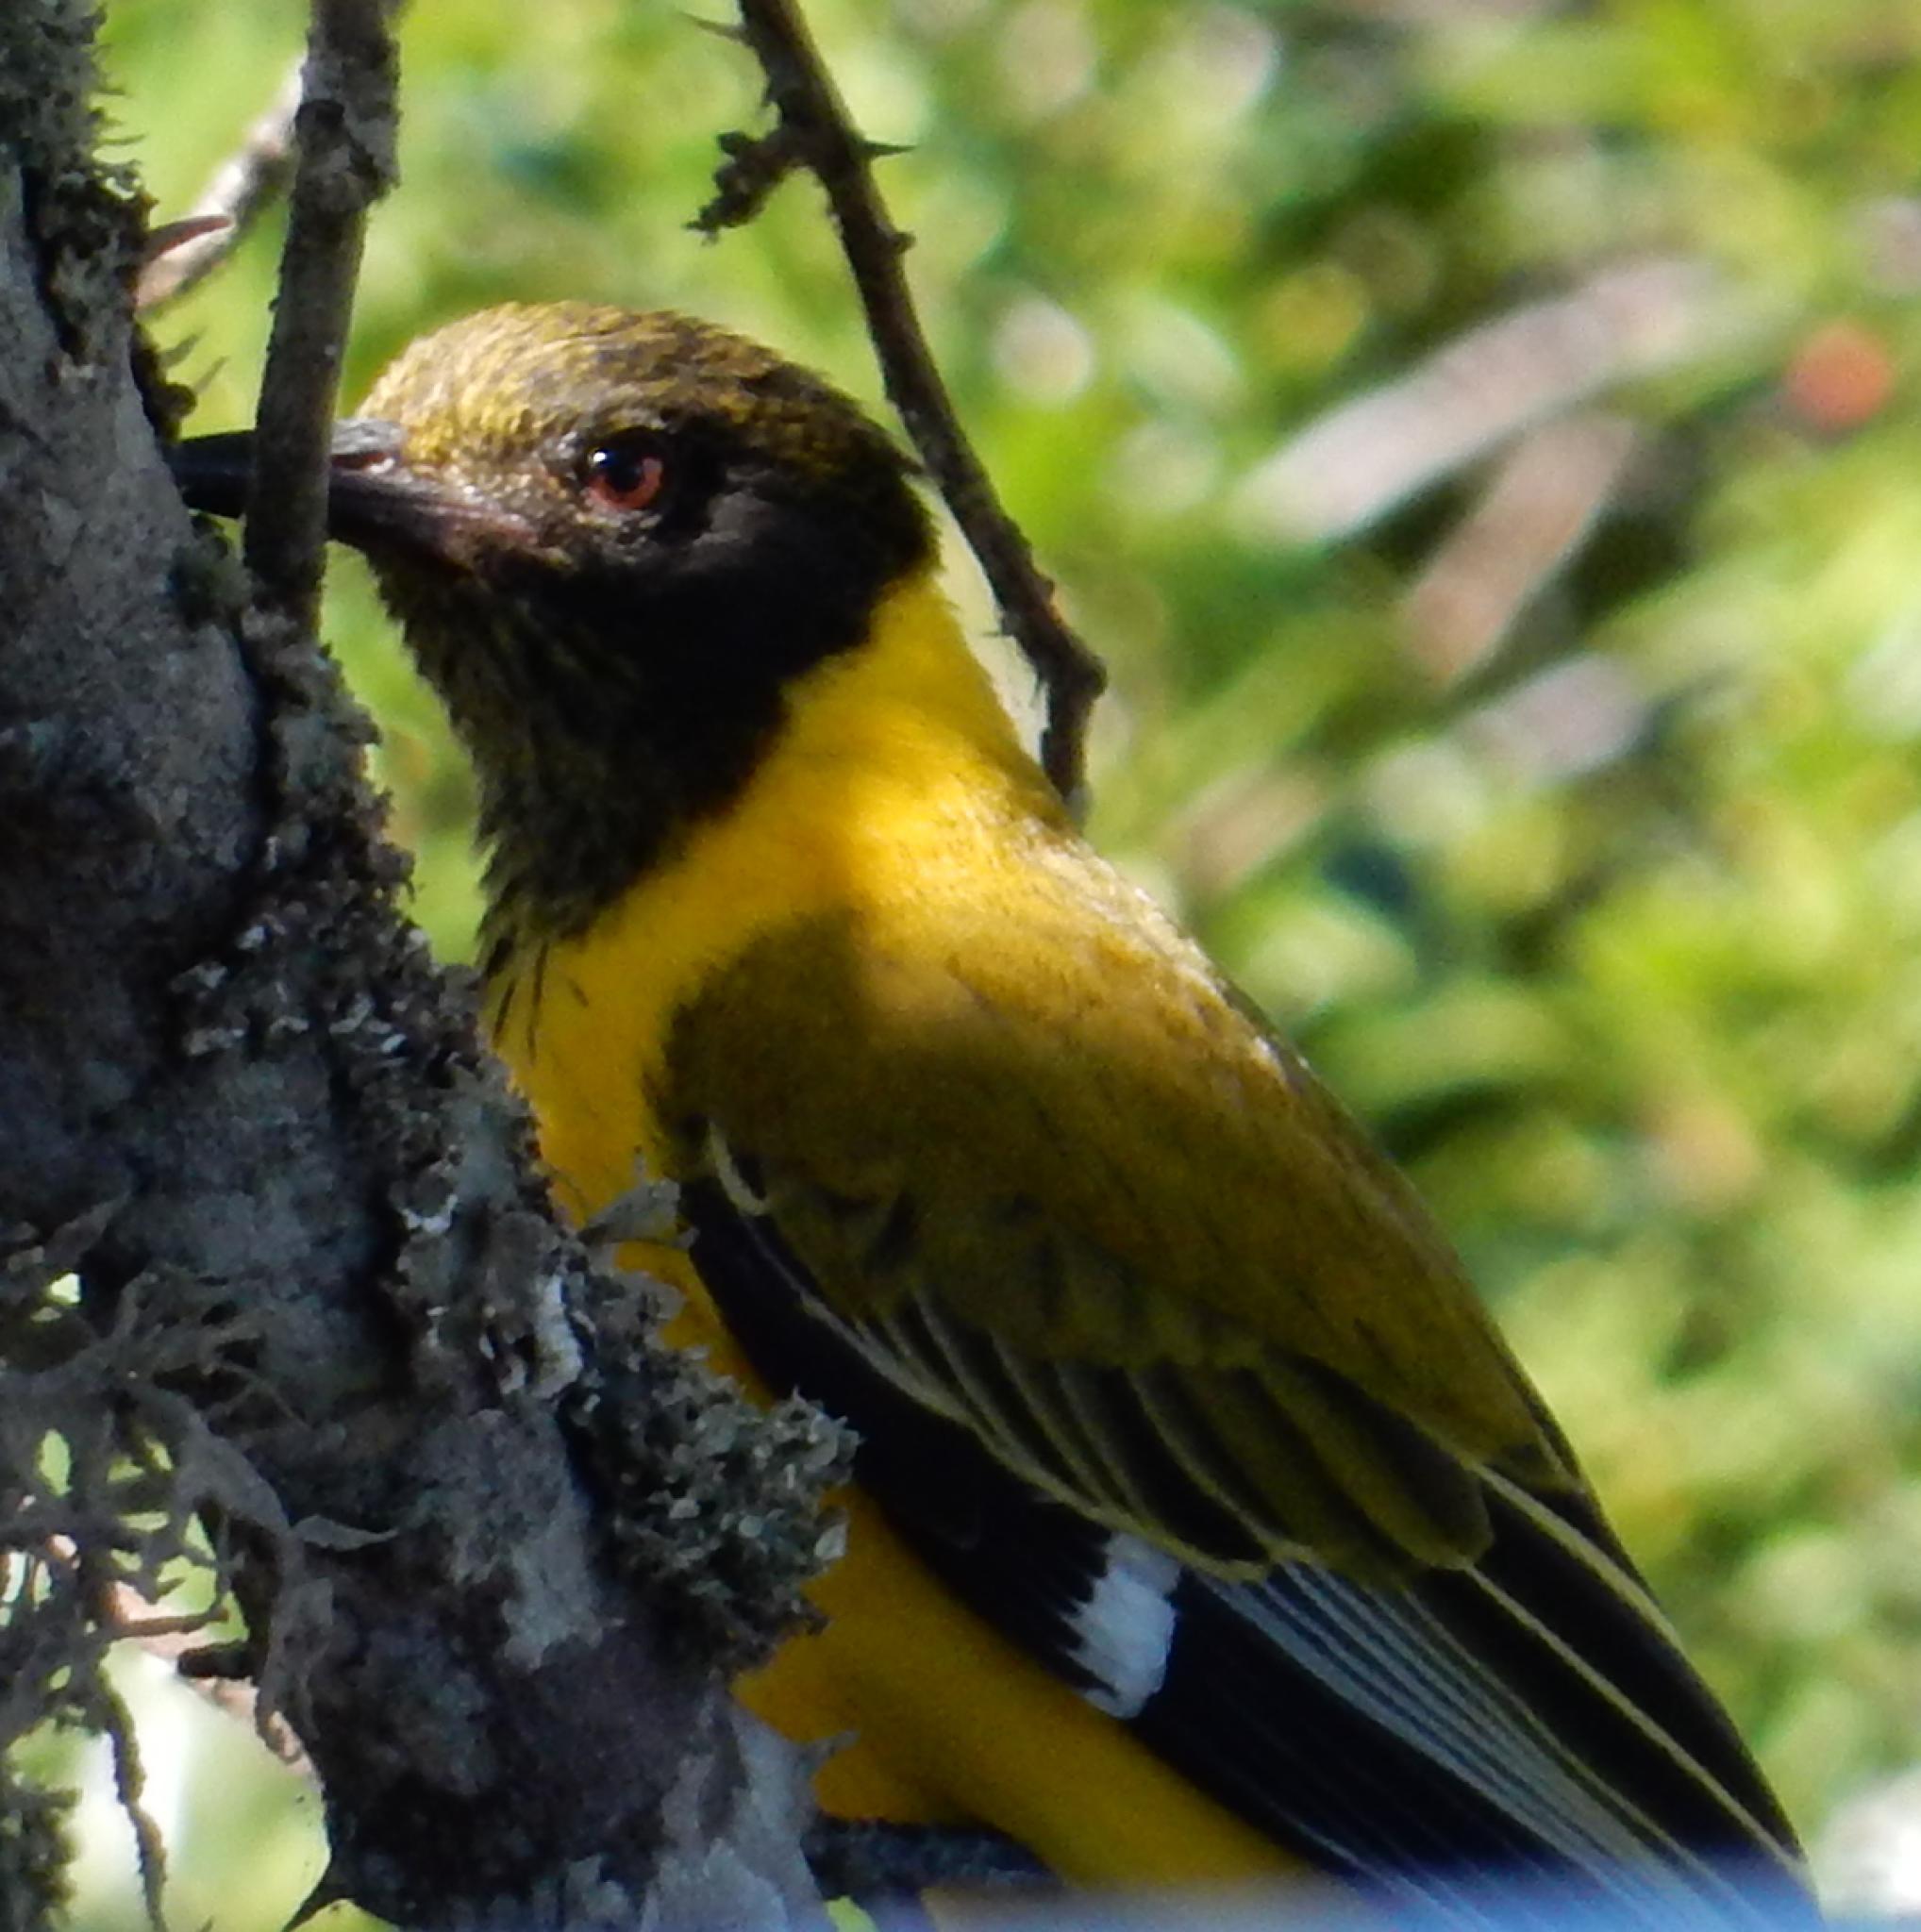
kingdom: Animalia
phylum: Chordata
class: Aves
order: Passeriformes
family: Oriolidae
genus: Oriolus
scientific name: Oriolus larvatus
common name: Black-headed oriole
